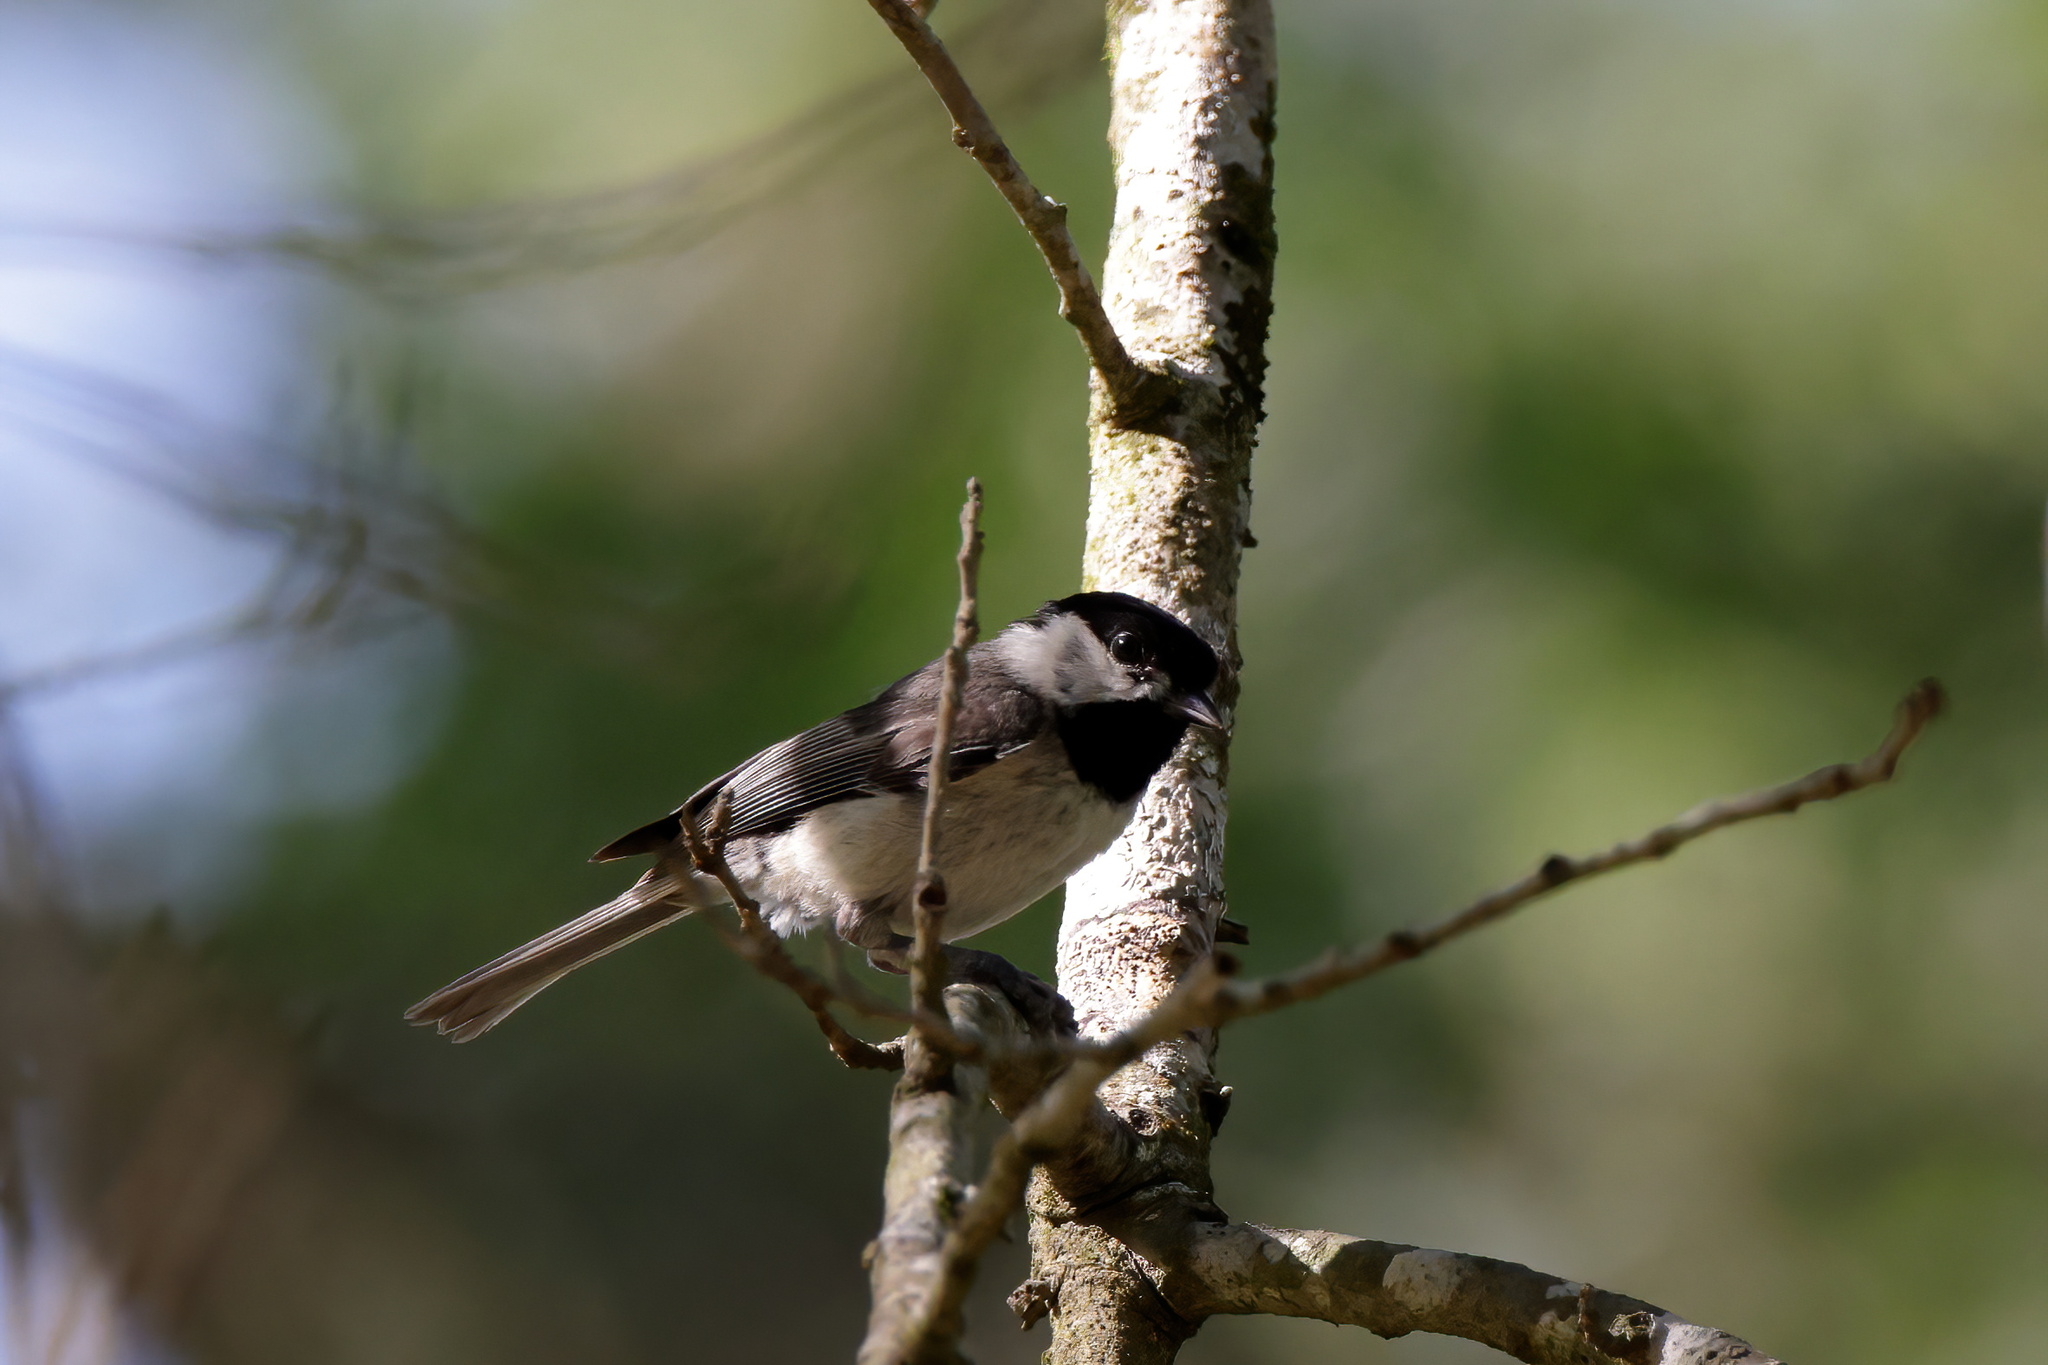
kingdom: Animalia
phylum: Chordata
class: Aves
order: Passeriformes
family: Paridae
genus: Poecile
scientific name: Poecile carolinensis
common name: Carolina chickadee
